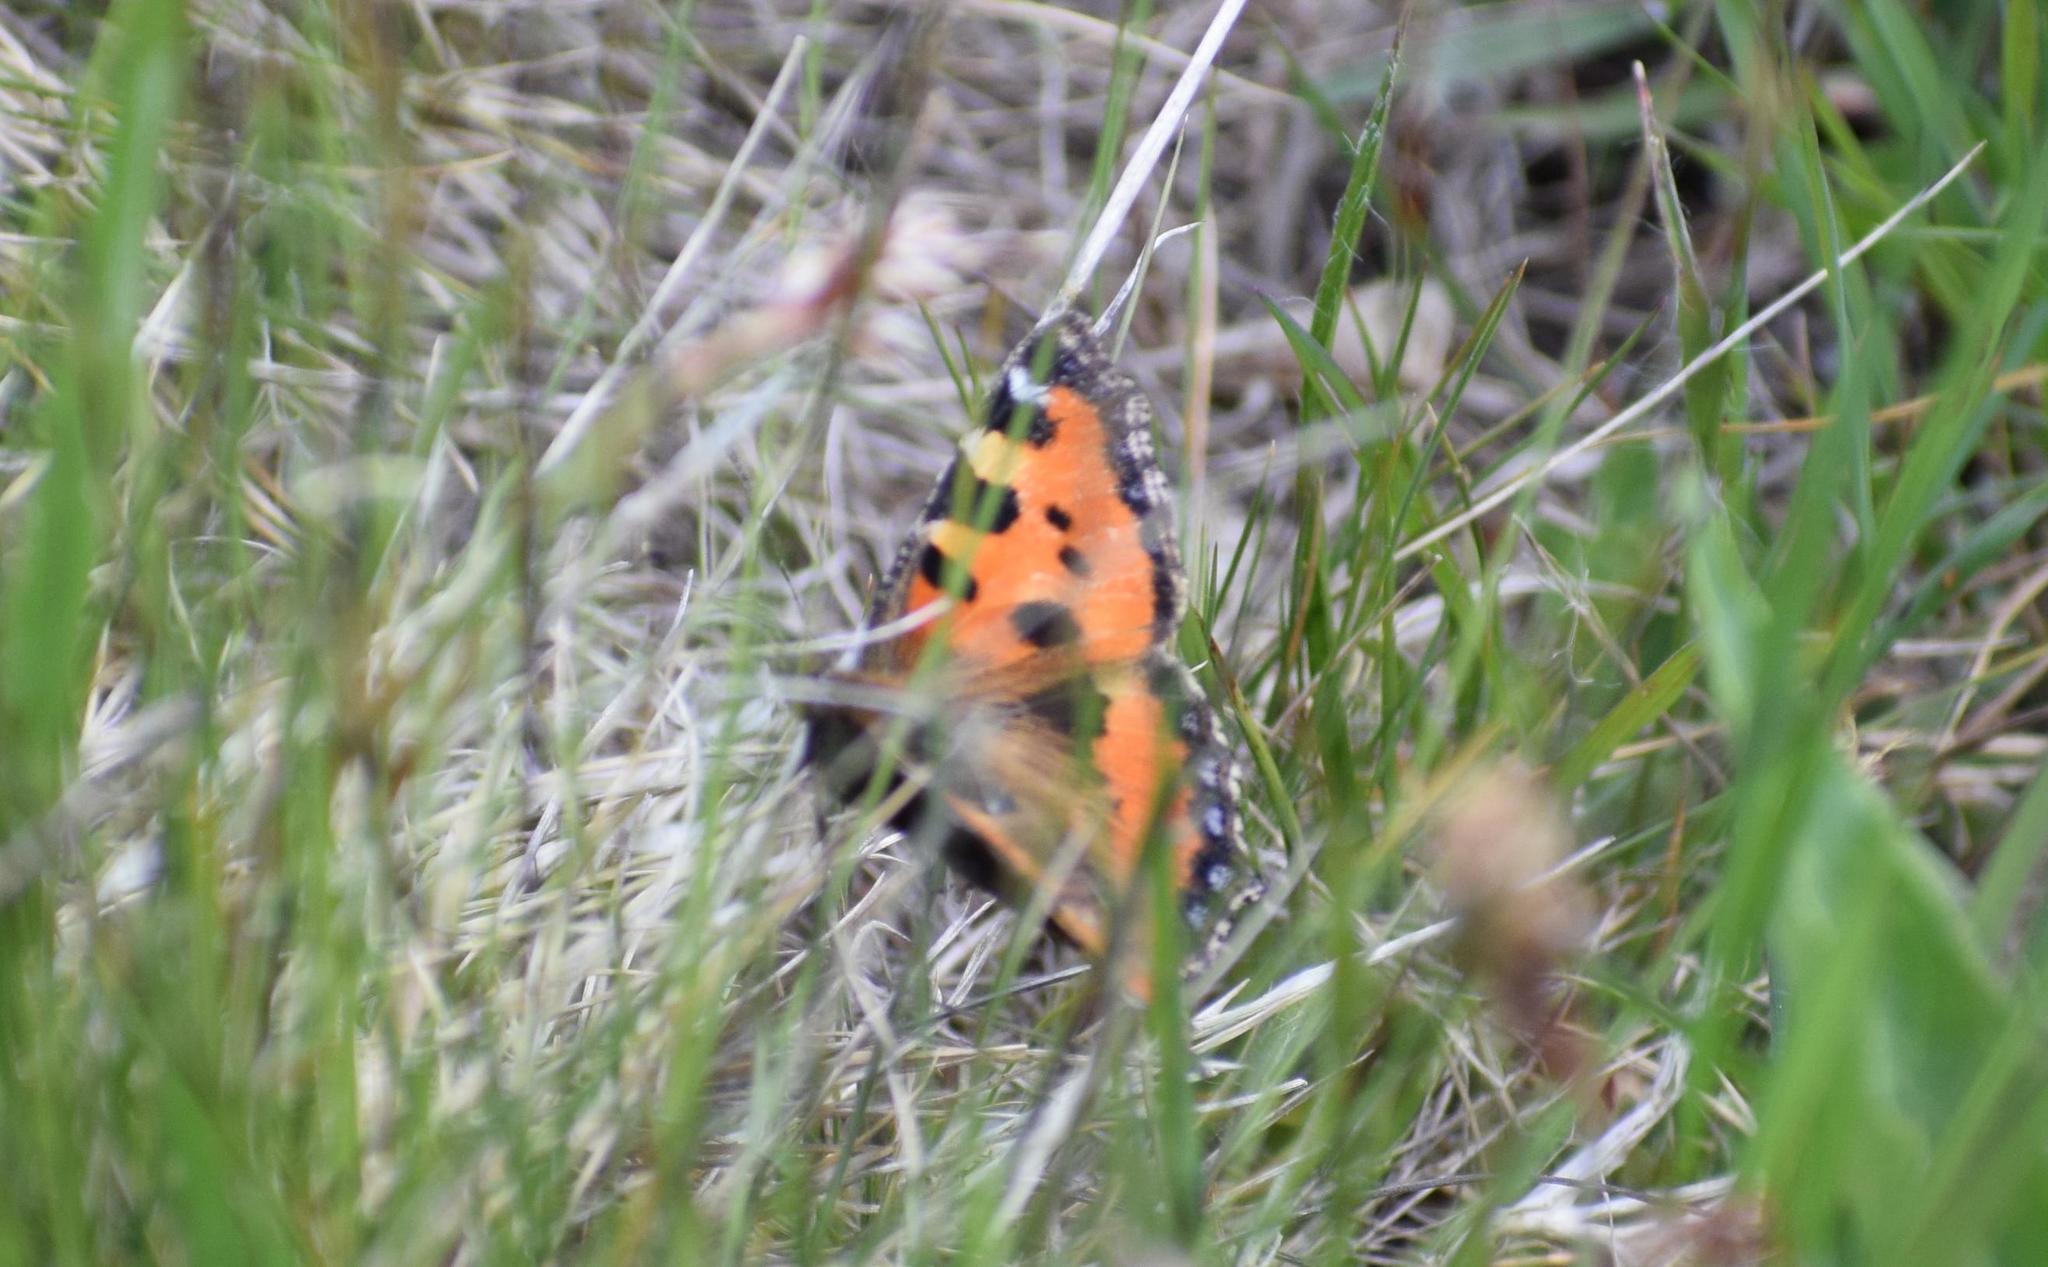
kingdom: Animalia
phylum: Arthropoda
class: Insecta
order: Lepidoptera
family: Nymphalidae
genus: Aglais
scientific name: Aglais urticae
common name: Small tortoiseshell
